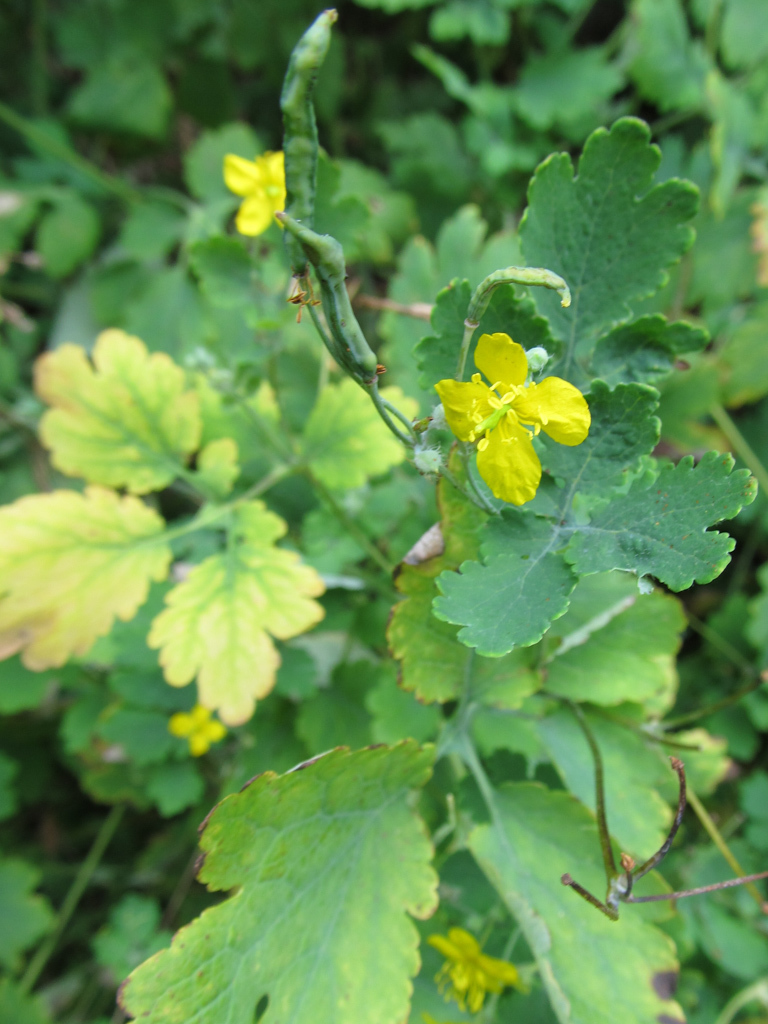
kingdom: Plantae
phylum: Tracheophyta
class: Magnoliopsida
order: Ranunculales
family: Papaveraceae
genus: Chelidonium
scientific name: Chelidonium majus
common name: Greater celandine
